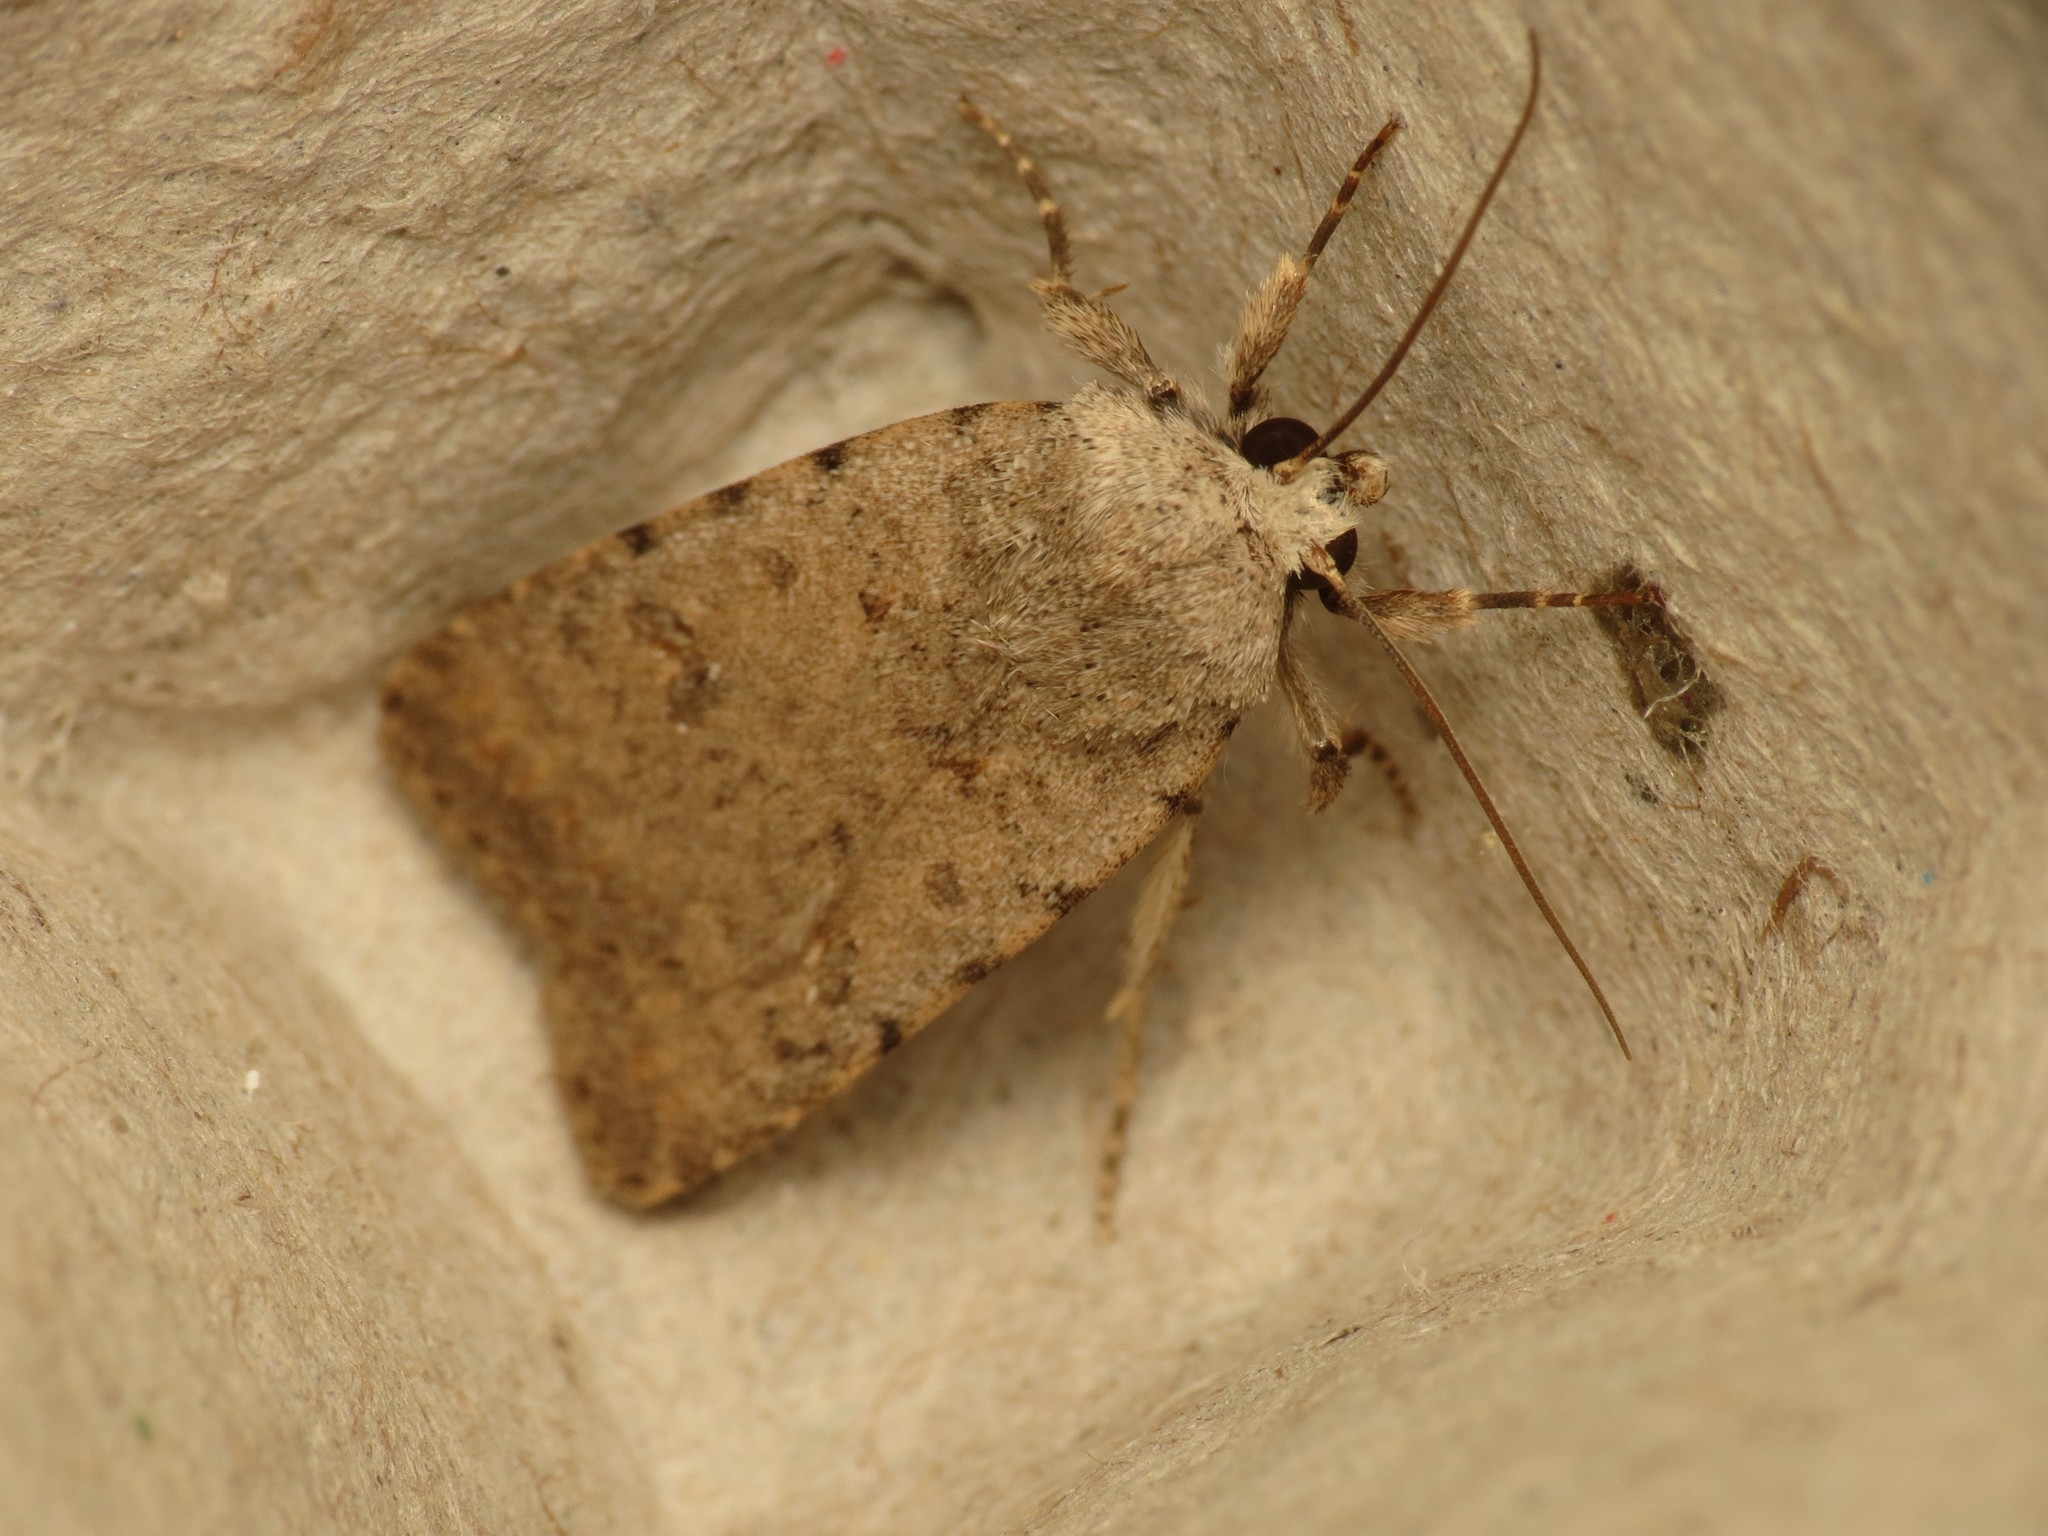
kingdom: Animalia
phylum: Arthropoda
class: Insecta
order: Lepidoptera
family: Noctuidae
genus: Caradrina
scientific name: Caradrina clavipalpis
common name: Pale mottled willow
